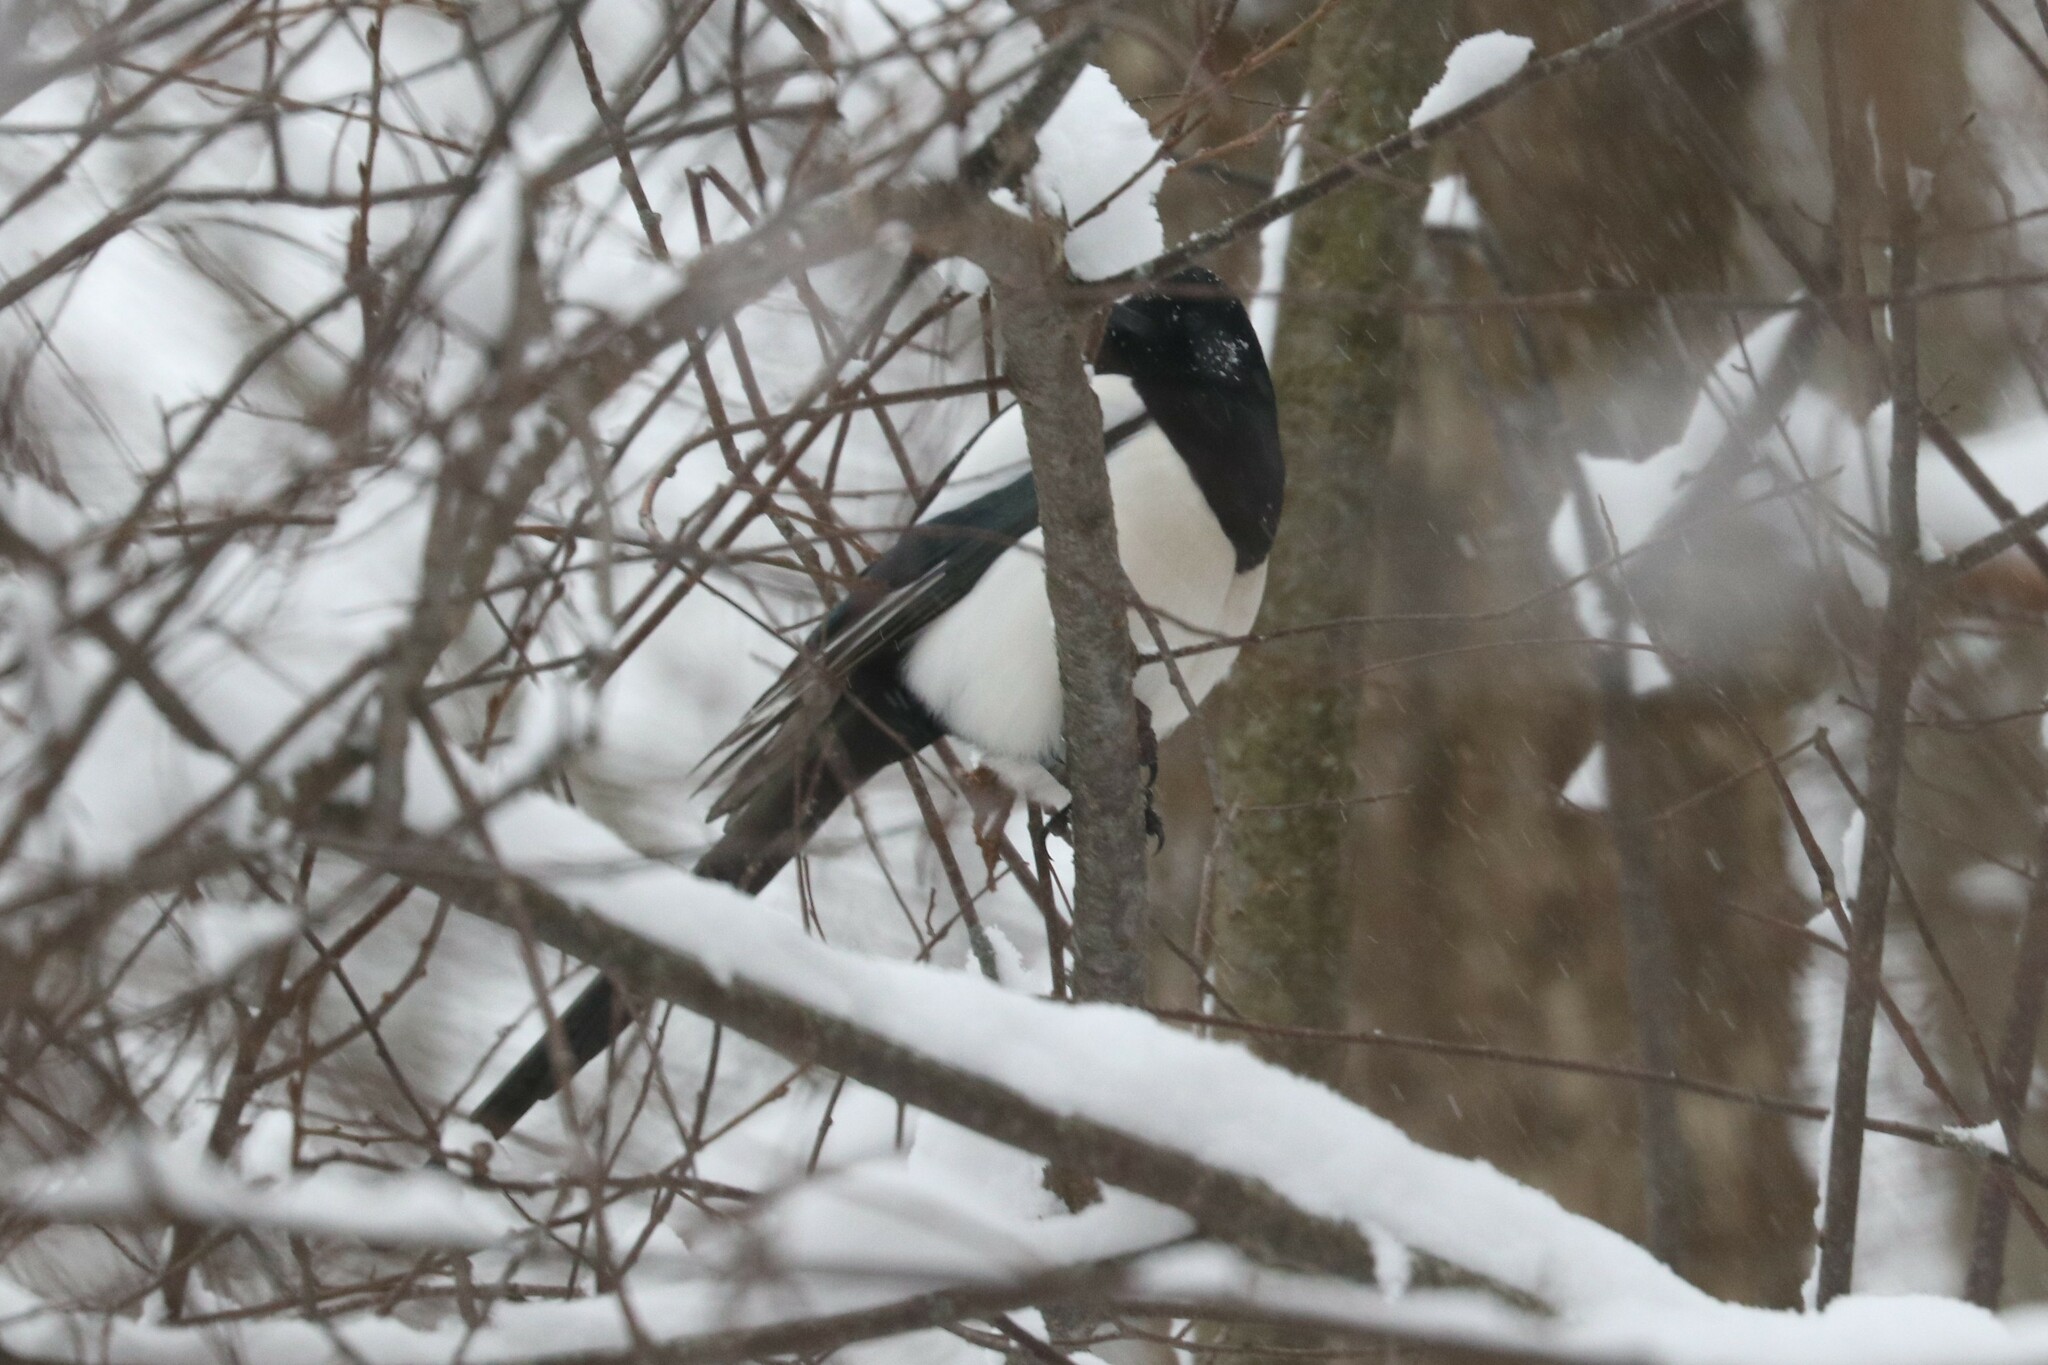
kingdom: Animalia
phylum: Chordata
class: Aves
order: Passeriformes
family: Corvidae
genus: Pica
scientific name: Pica pica
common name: Eurasian magpie
